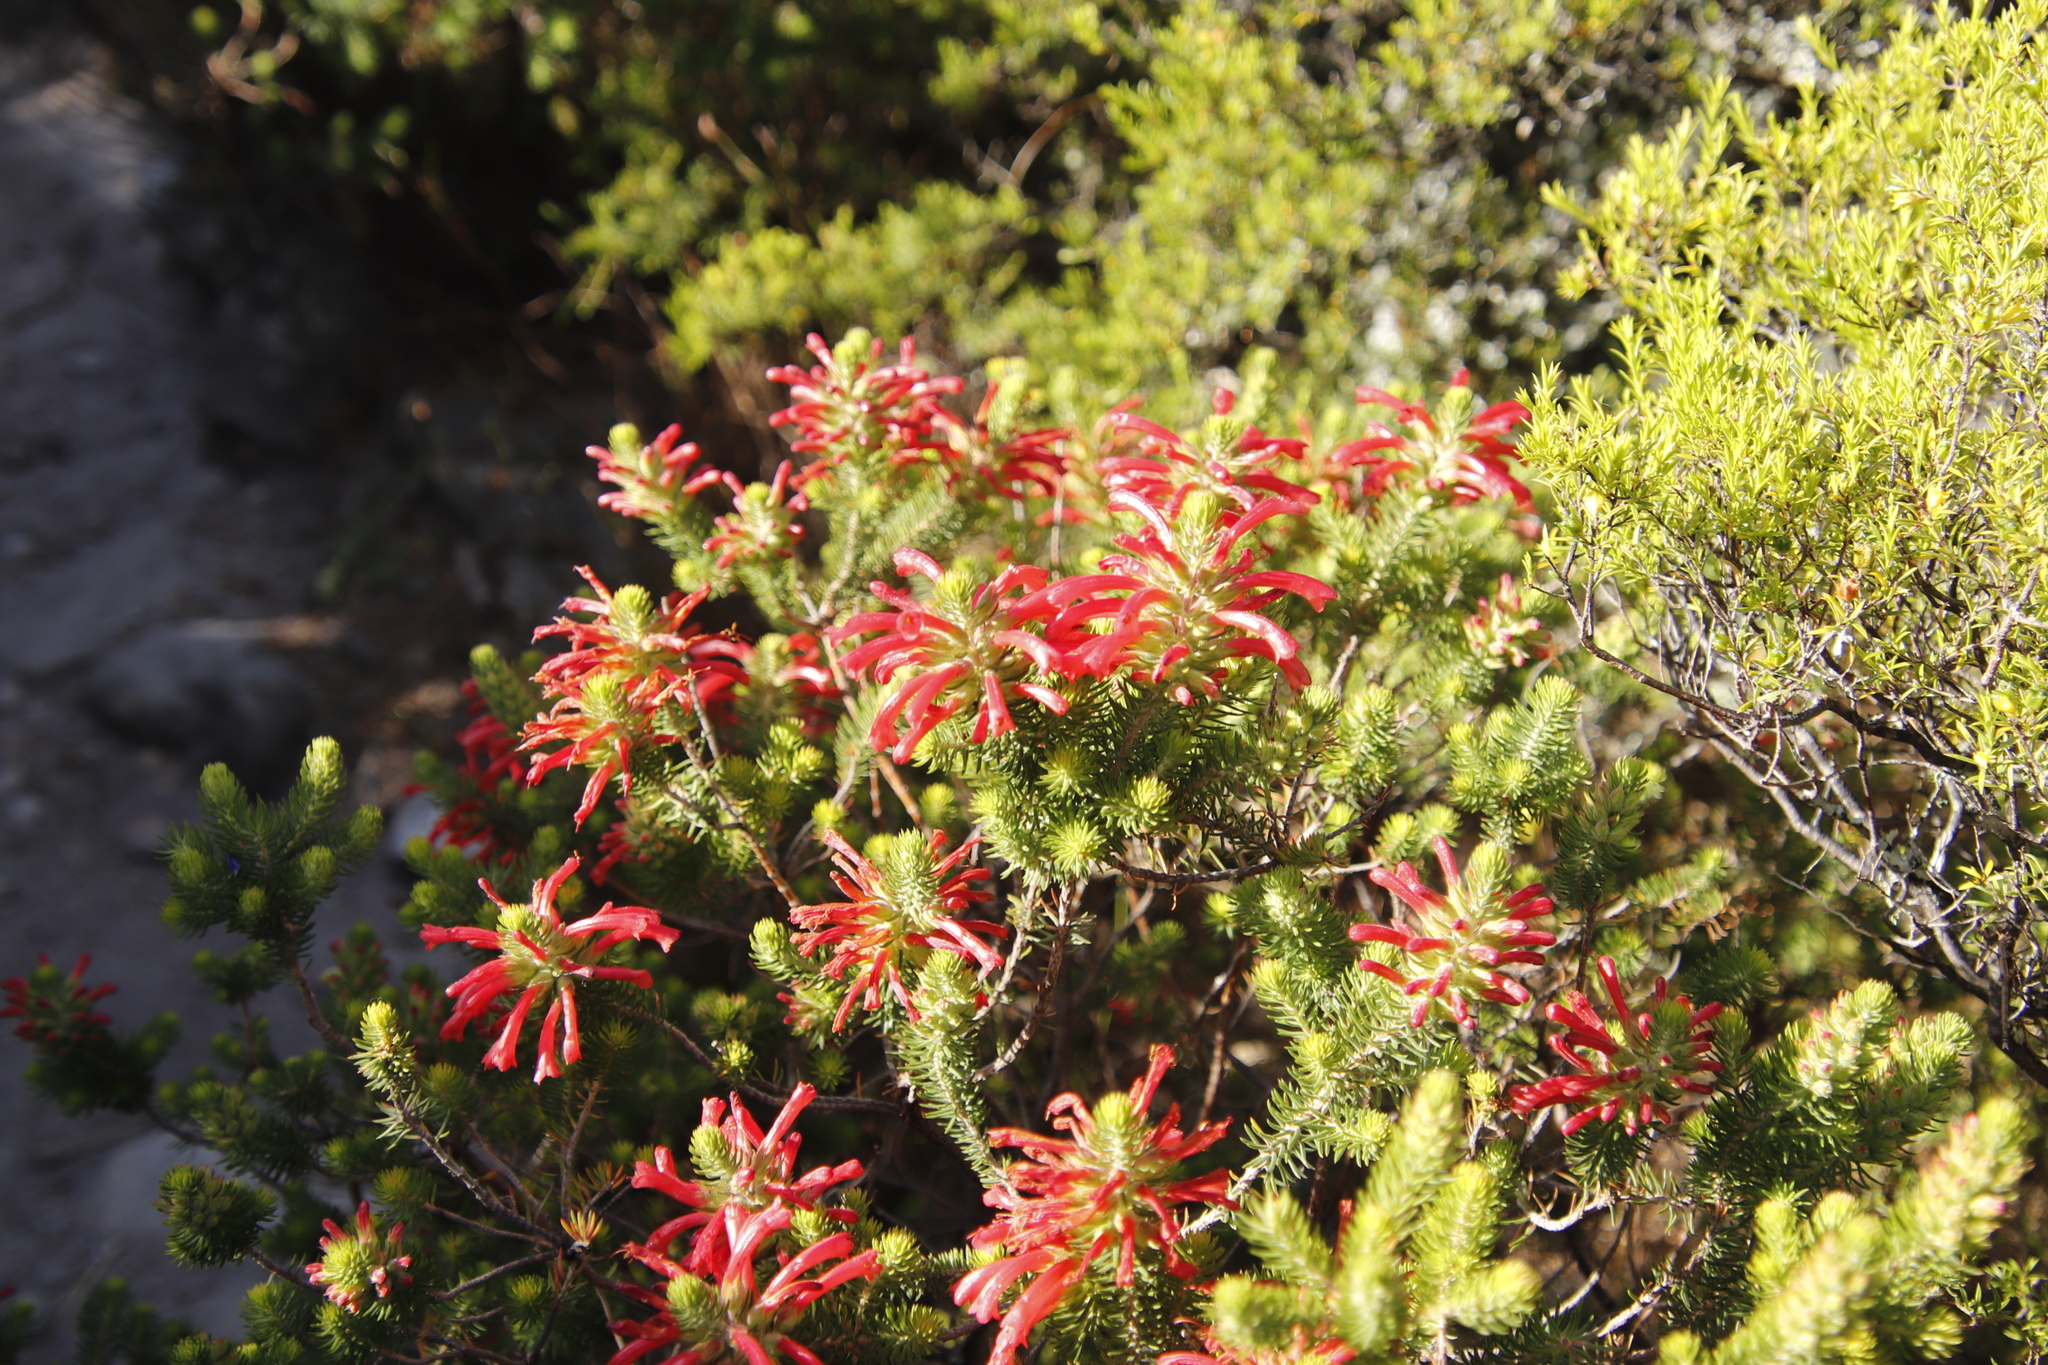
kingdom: Plantae
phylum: Tracheophyta
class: Magnoliopsida
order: Ericales
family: Ericaceae
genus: Erica
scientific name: Erica abietina
